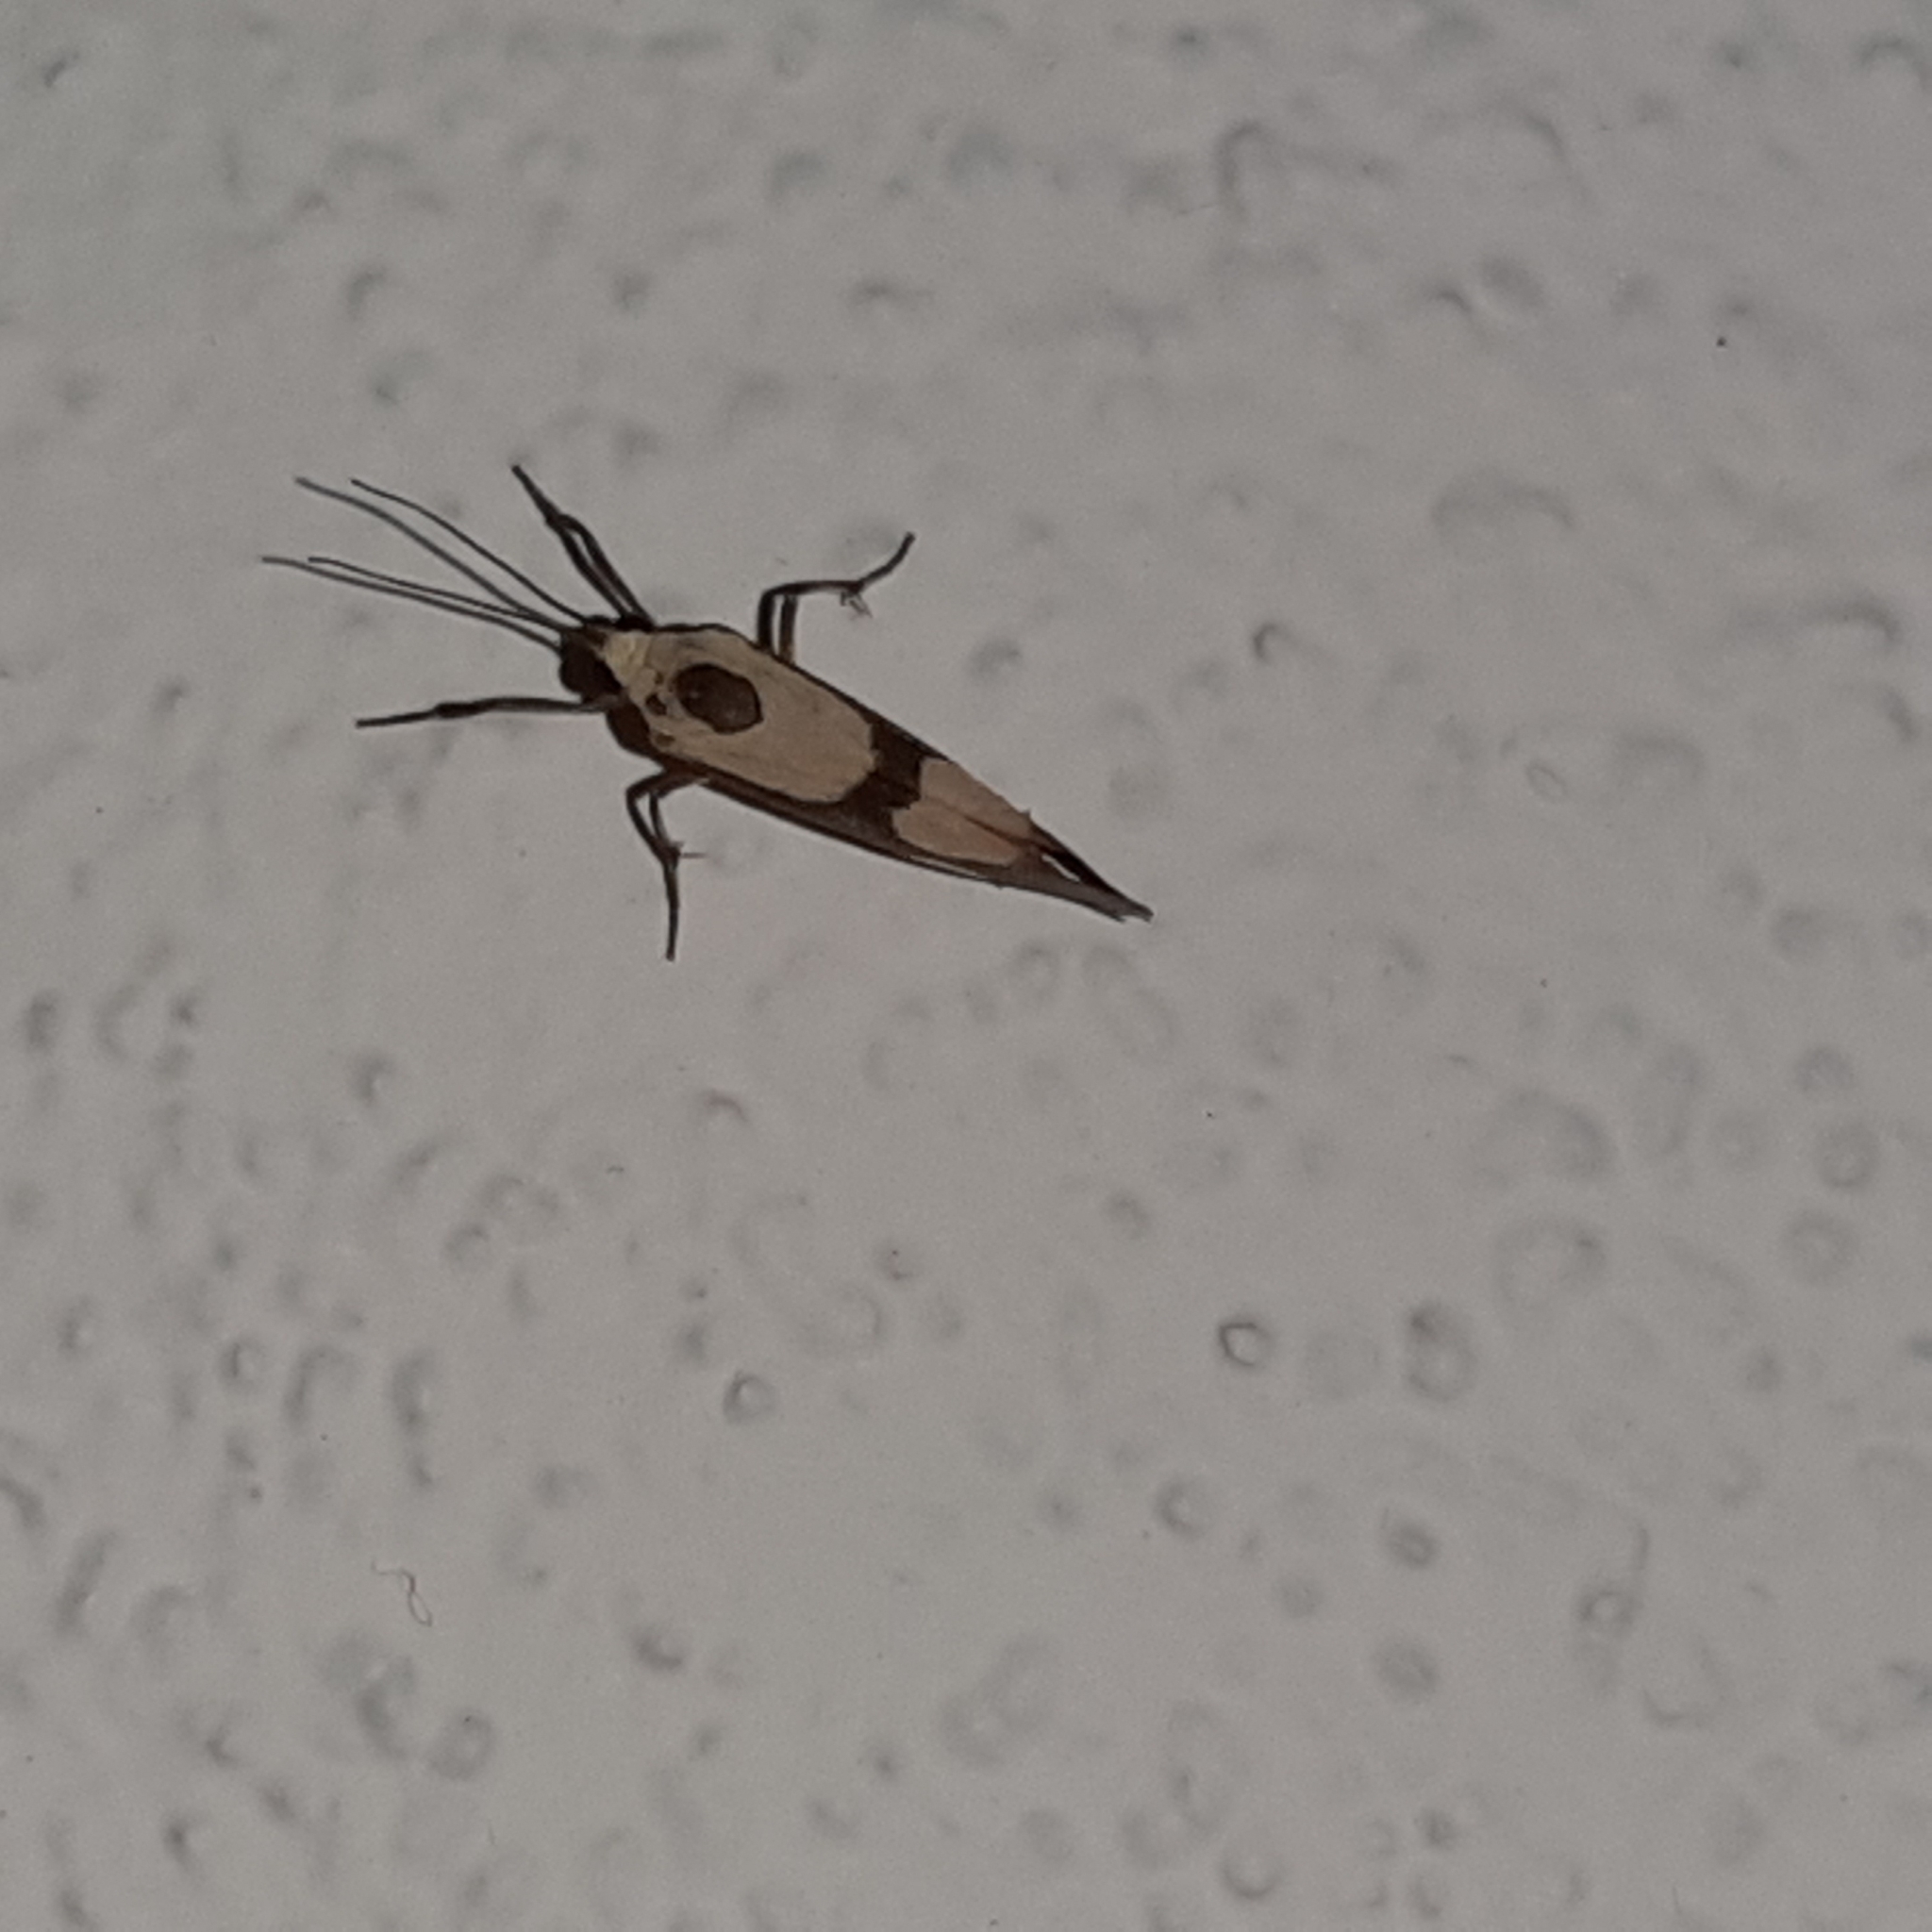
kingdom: Animalia
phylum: Arthropoda
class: Insecta
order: Lepidoptera
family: Erebidae
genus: Cisthene
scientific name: Cisthene polyzona
